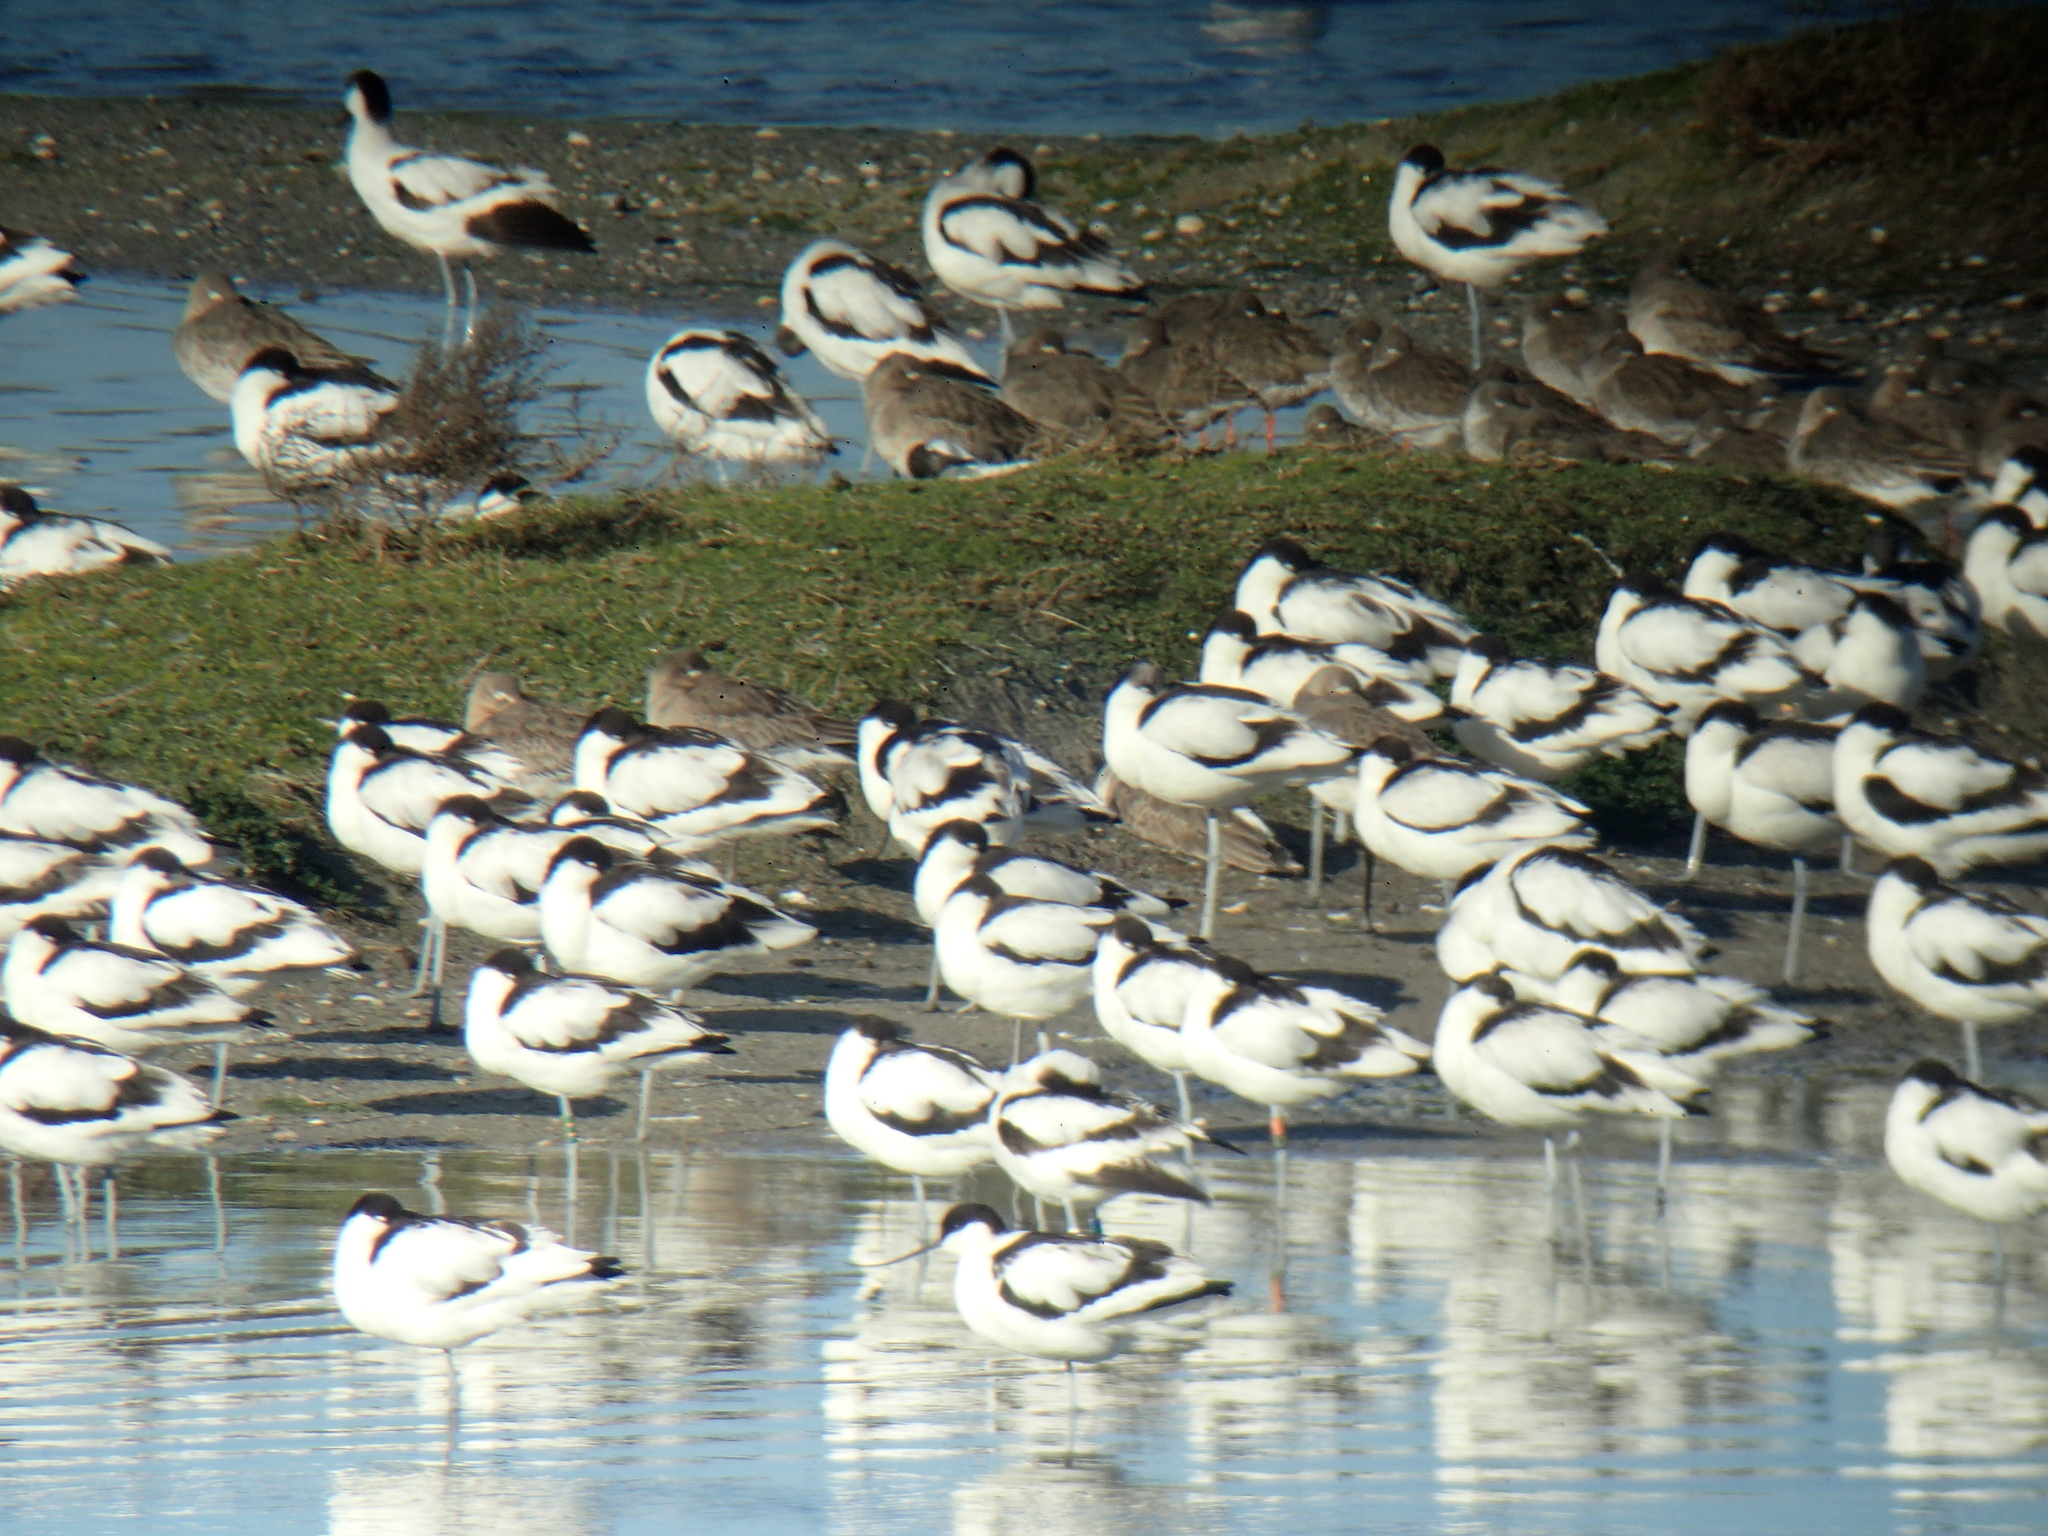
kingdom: Animalia
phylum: Chordata
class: Aves
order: Charadriiformes
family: Recurvirostridae
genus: Recurvirostra
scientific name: Recurvirostra avosetta
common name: Pied avocet
